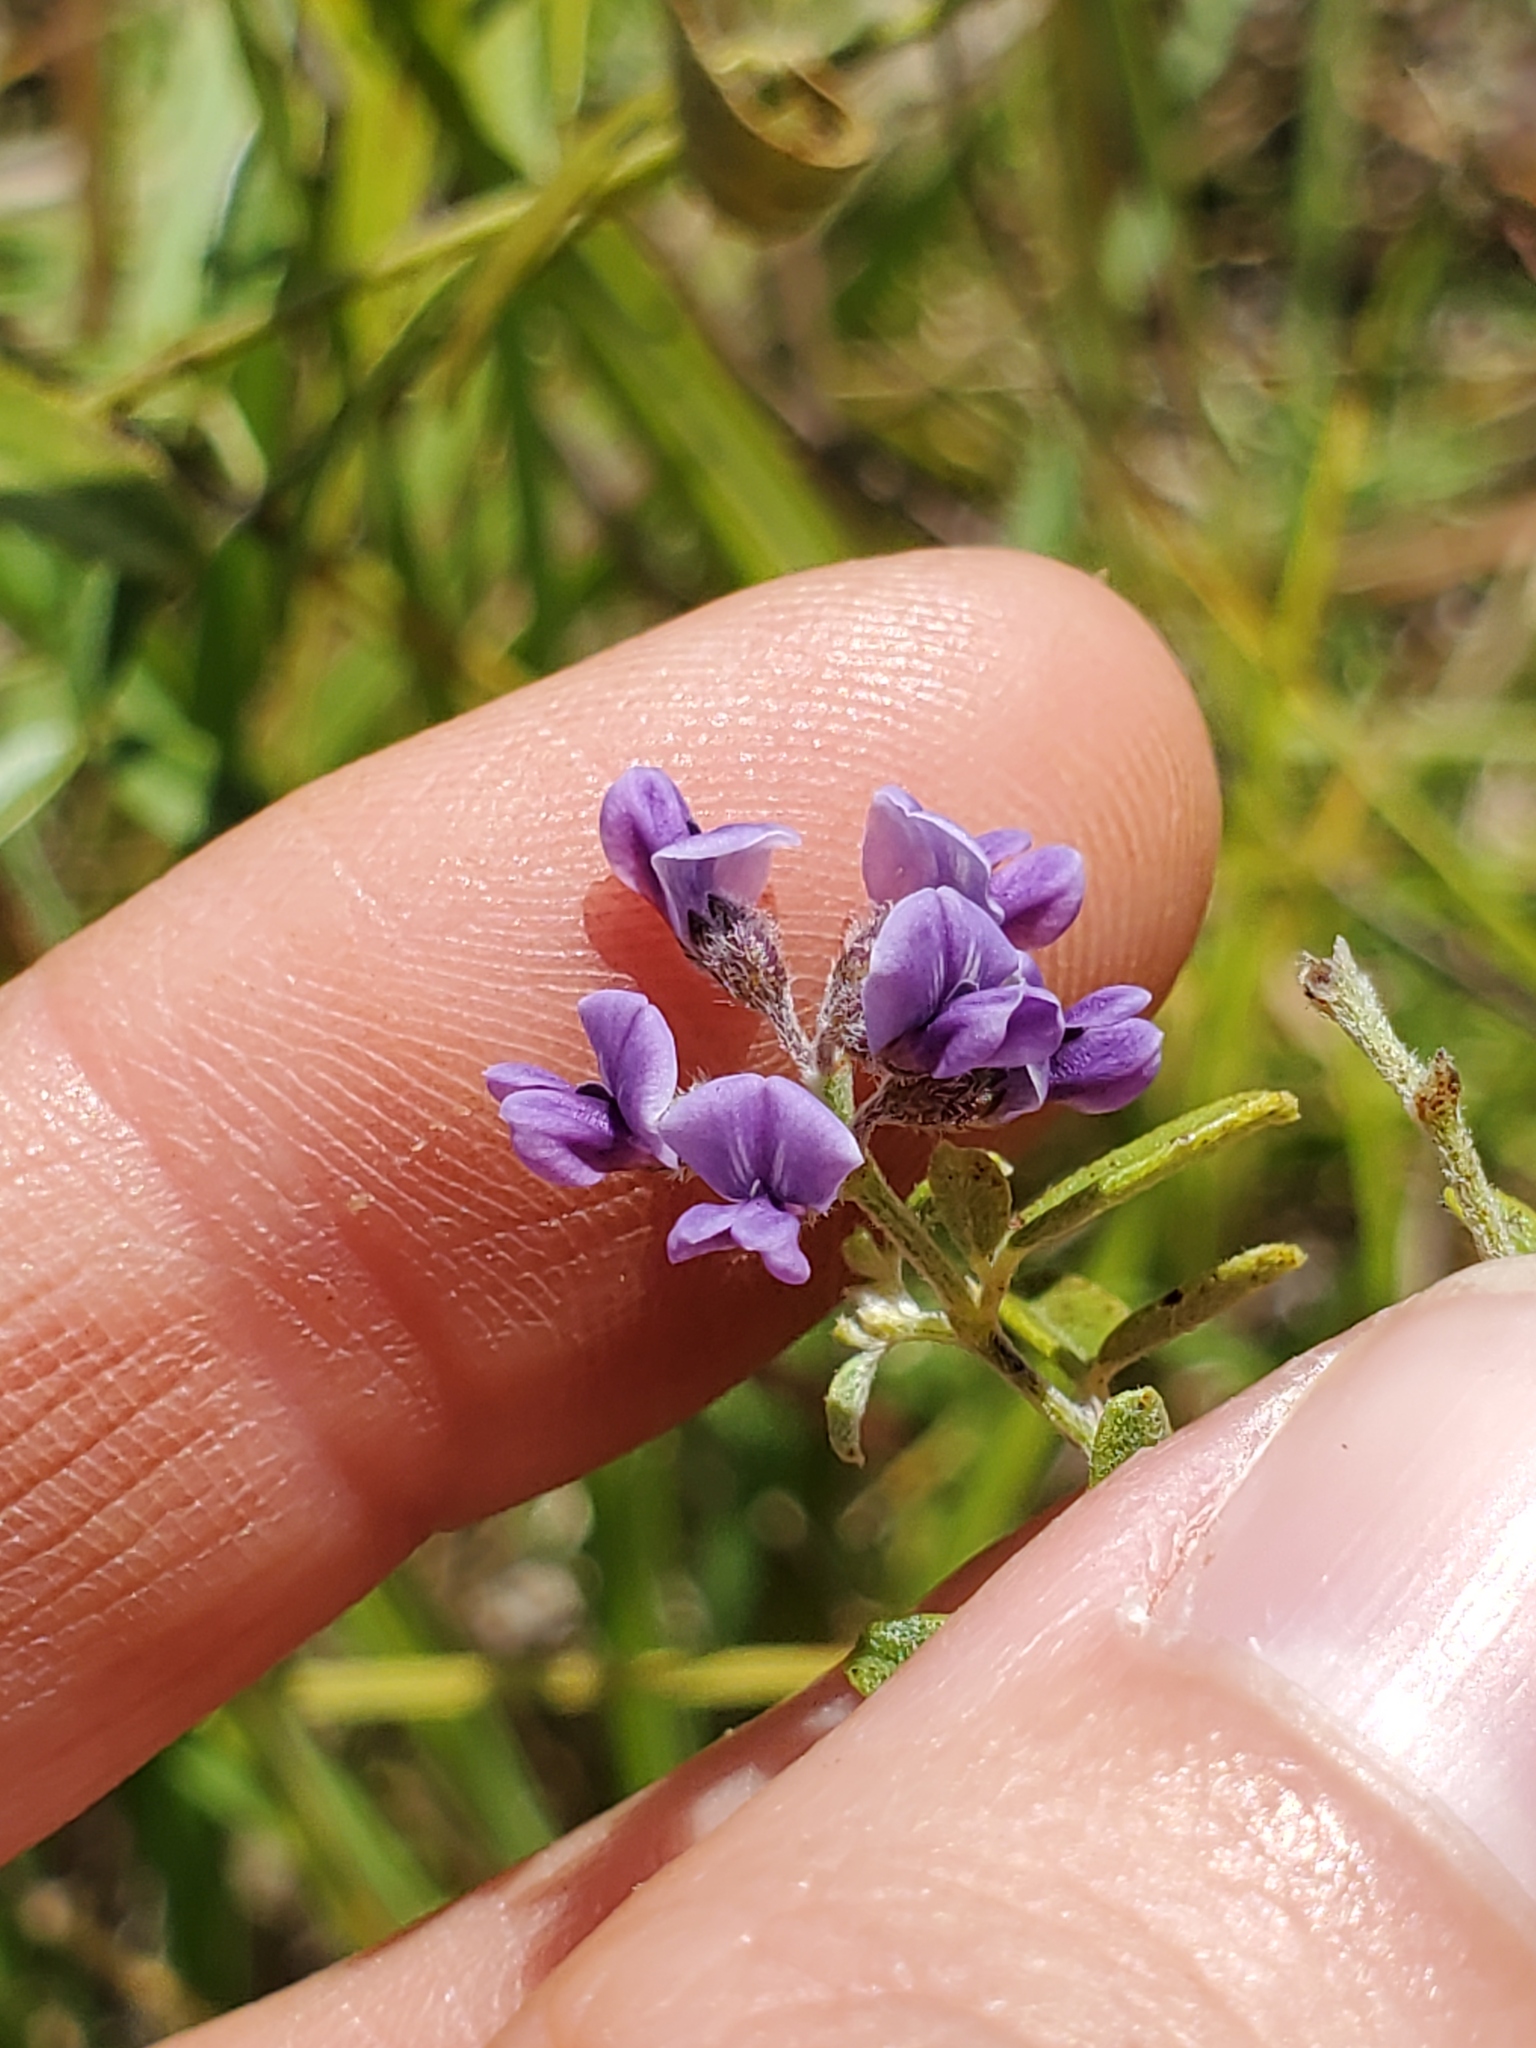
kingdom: Plantae
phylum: Tracheophyta
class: Magnoliopsida
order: Fabales
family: Fabaceae
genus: Pediomelum
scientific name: Pediomelum tenuiflorum
